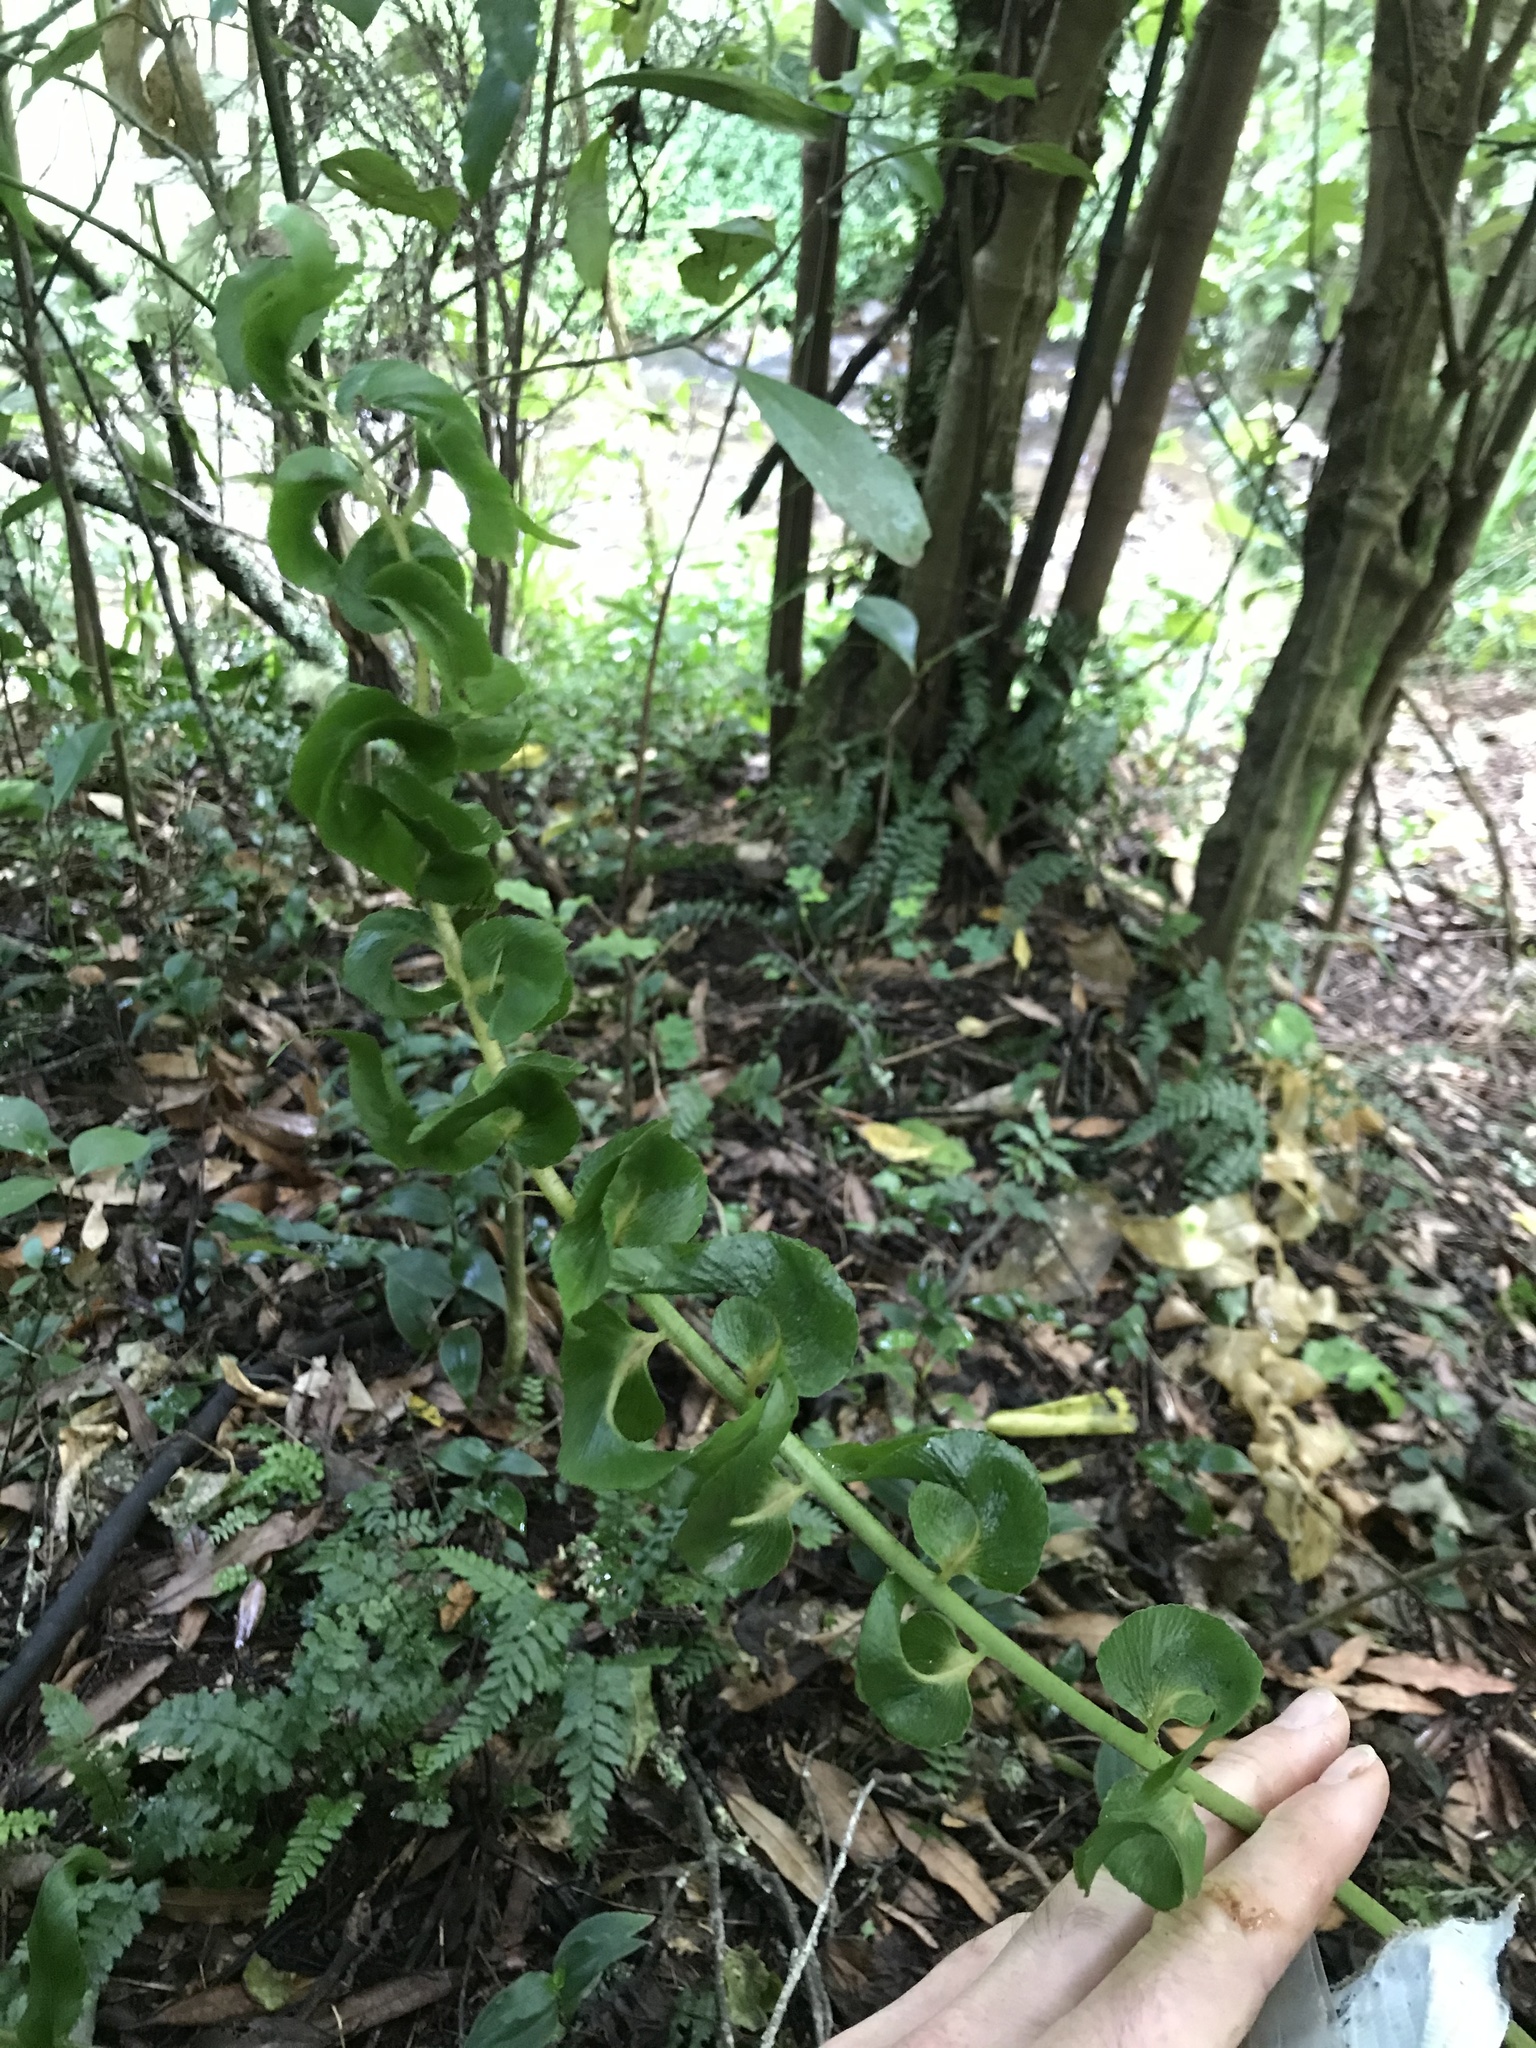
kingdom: Plantae
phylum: Tracheophyta
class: Polypodiopsida
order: Polypodiales
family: Aspleniaceae
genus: Asplenium
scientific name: Asplenium oblongifolium
